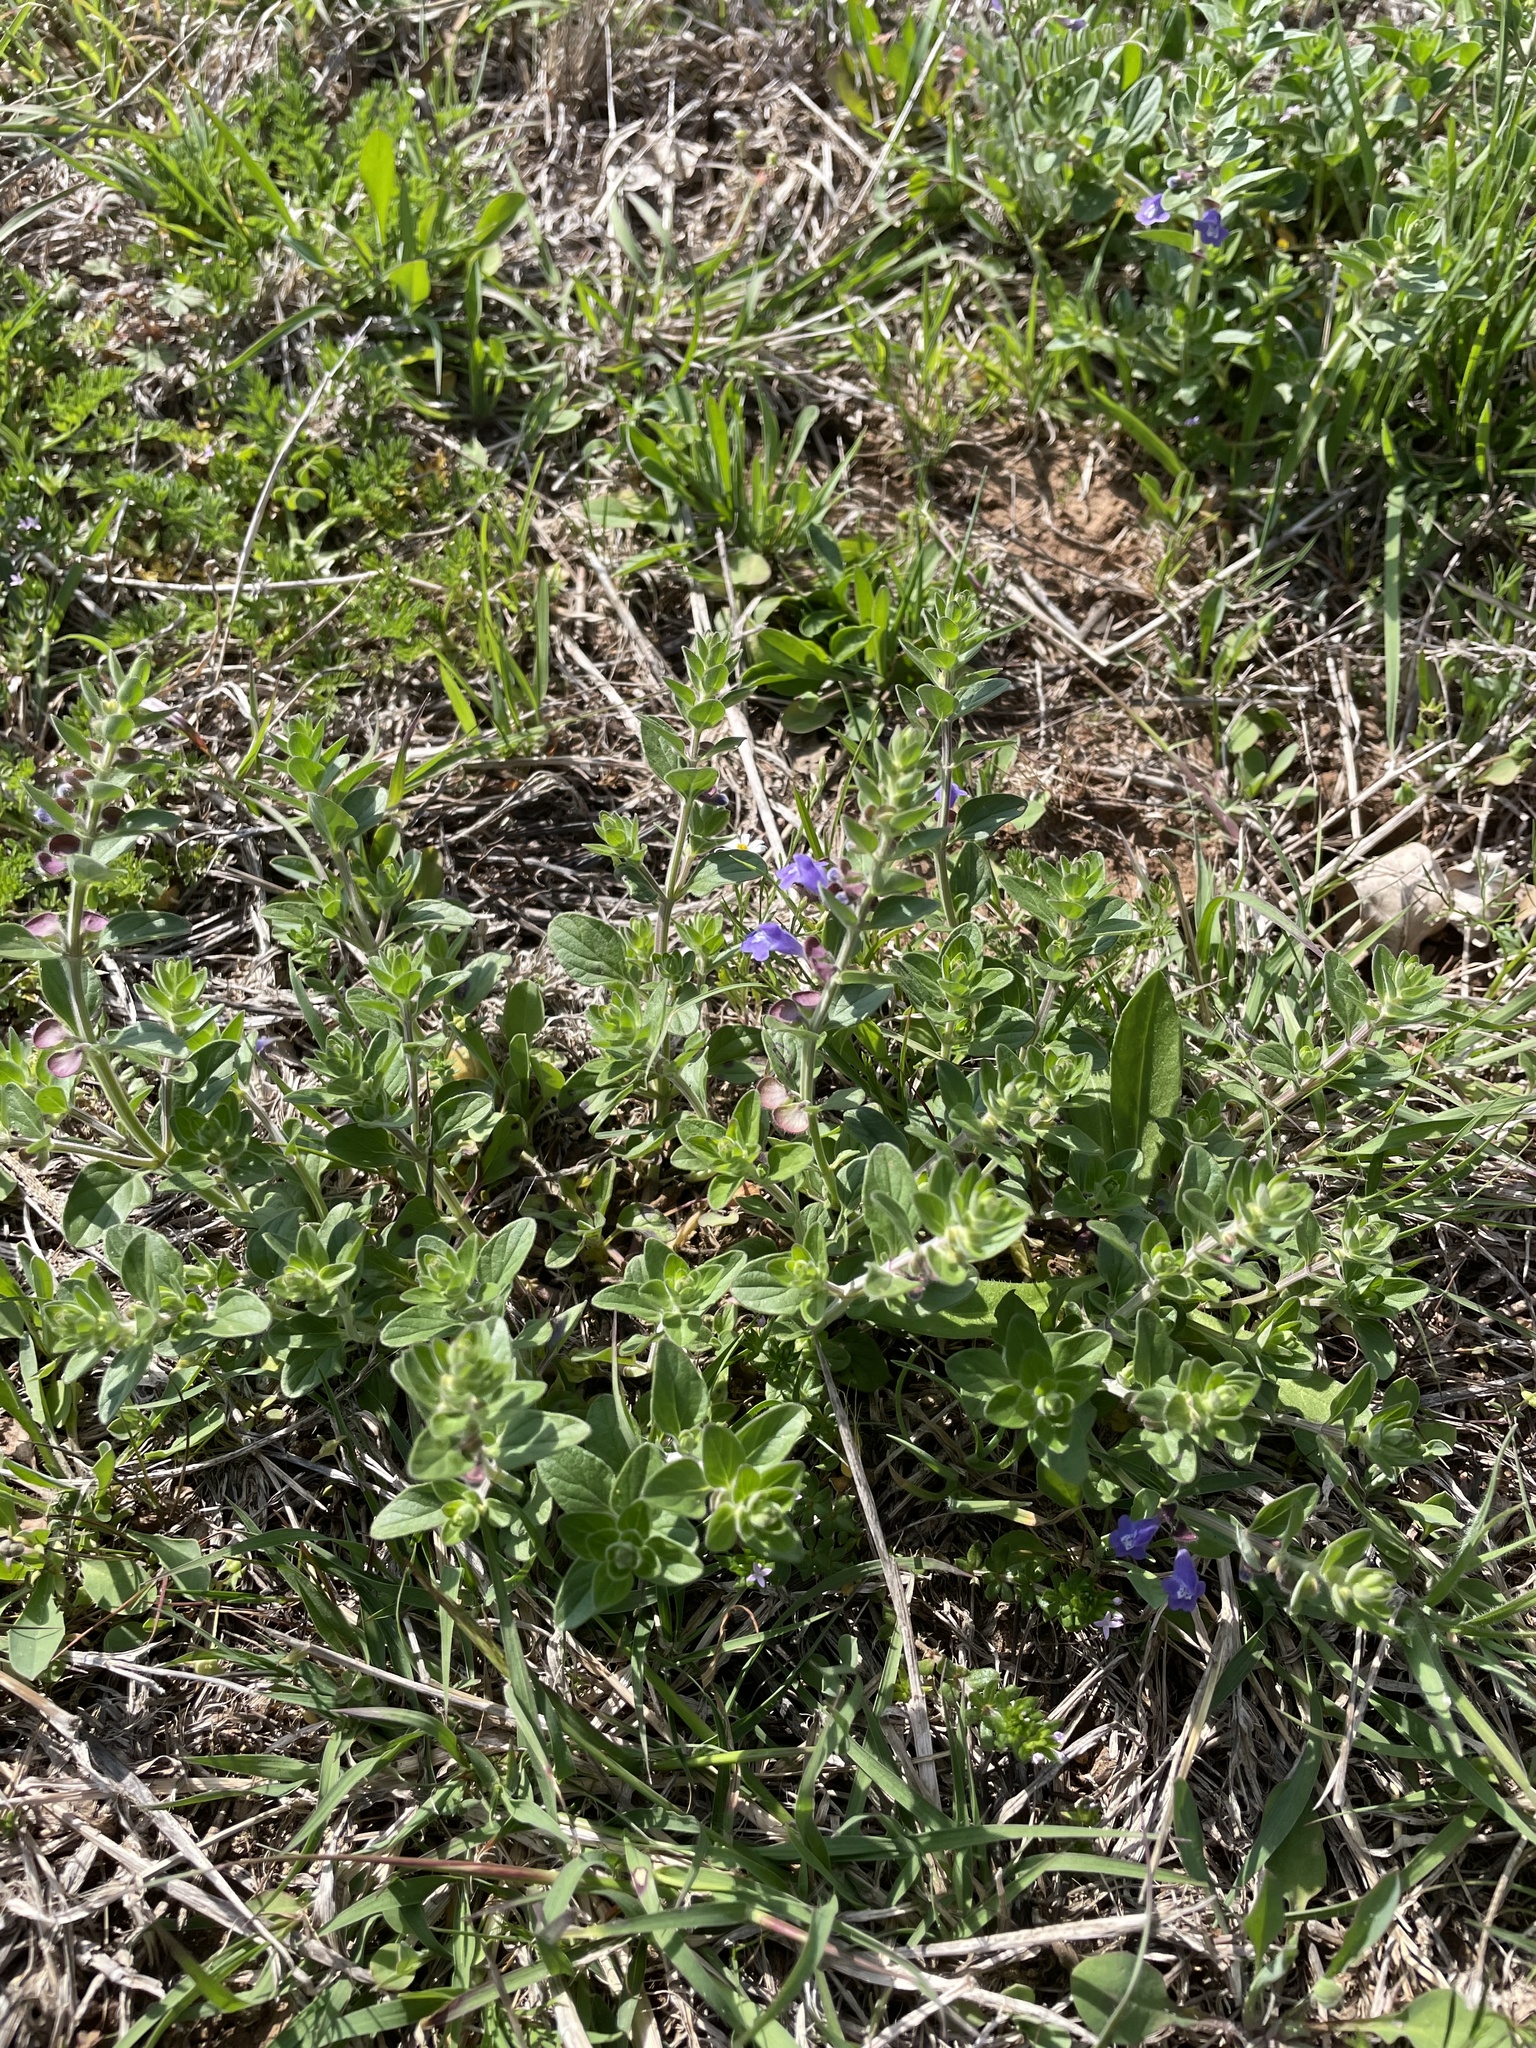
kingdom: Plantae
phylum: Tracheophyta
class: Magnoliopsida
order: Lamiales
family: Lamiaceae
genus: Scutellaria
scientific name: Scutellaria drummondii
